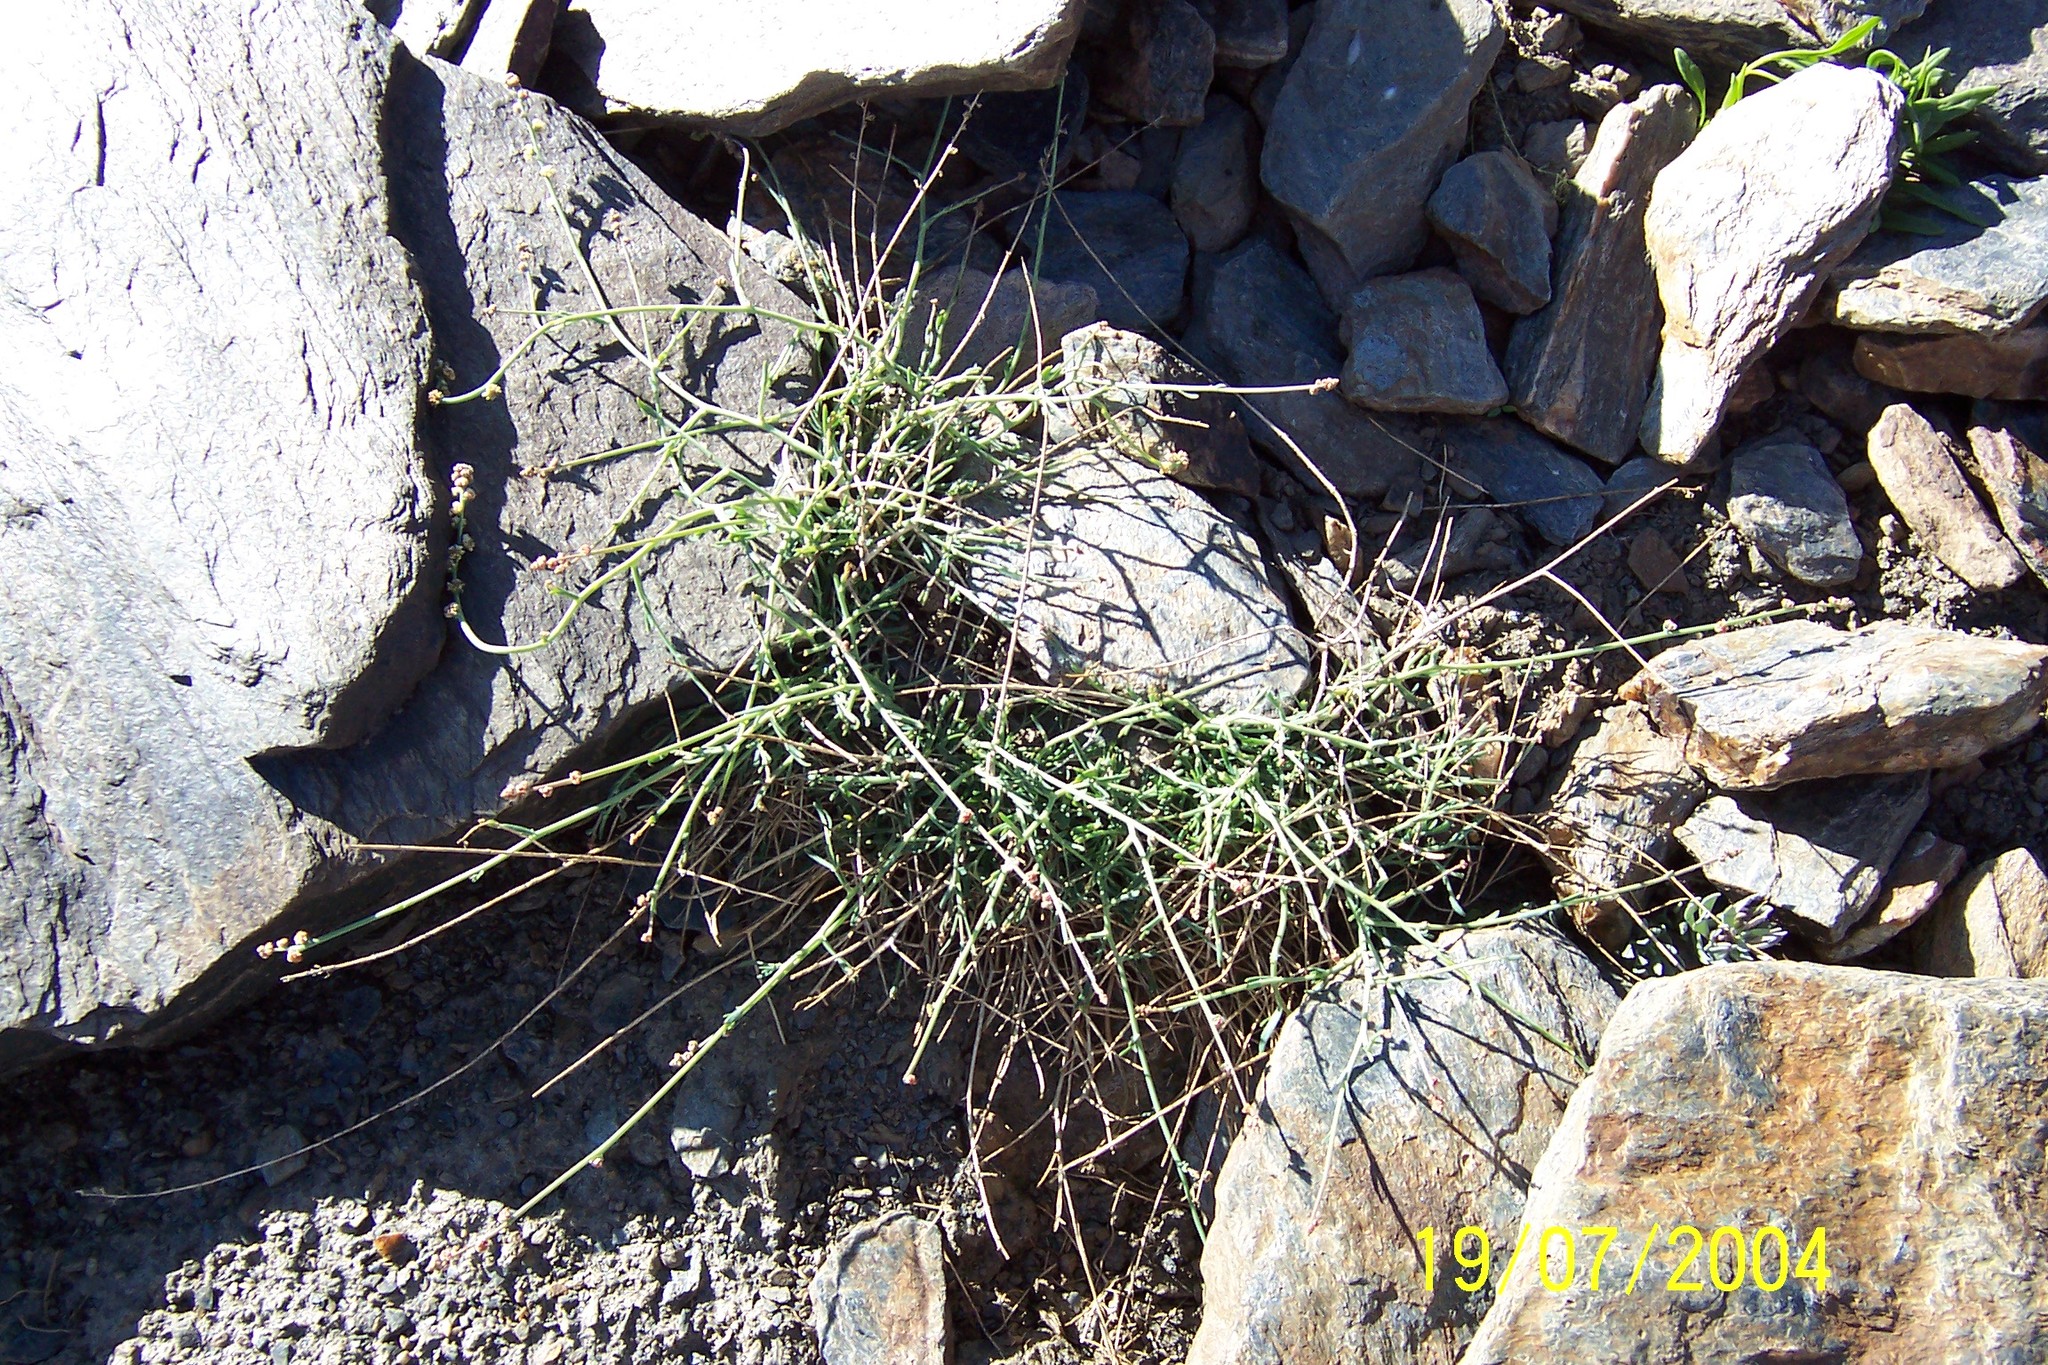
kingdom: Plantae
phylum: Tracheophyta
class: Magnoliopsida
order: Brassicales
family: Resedaceae
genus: Reseda
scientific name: Reseda complicata
